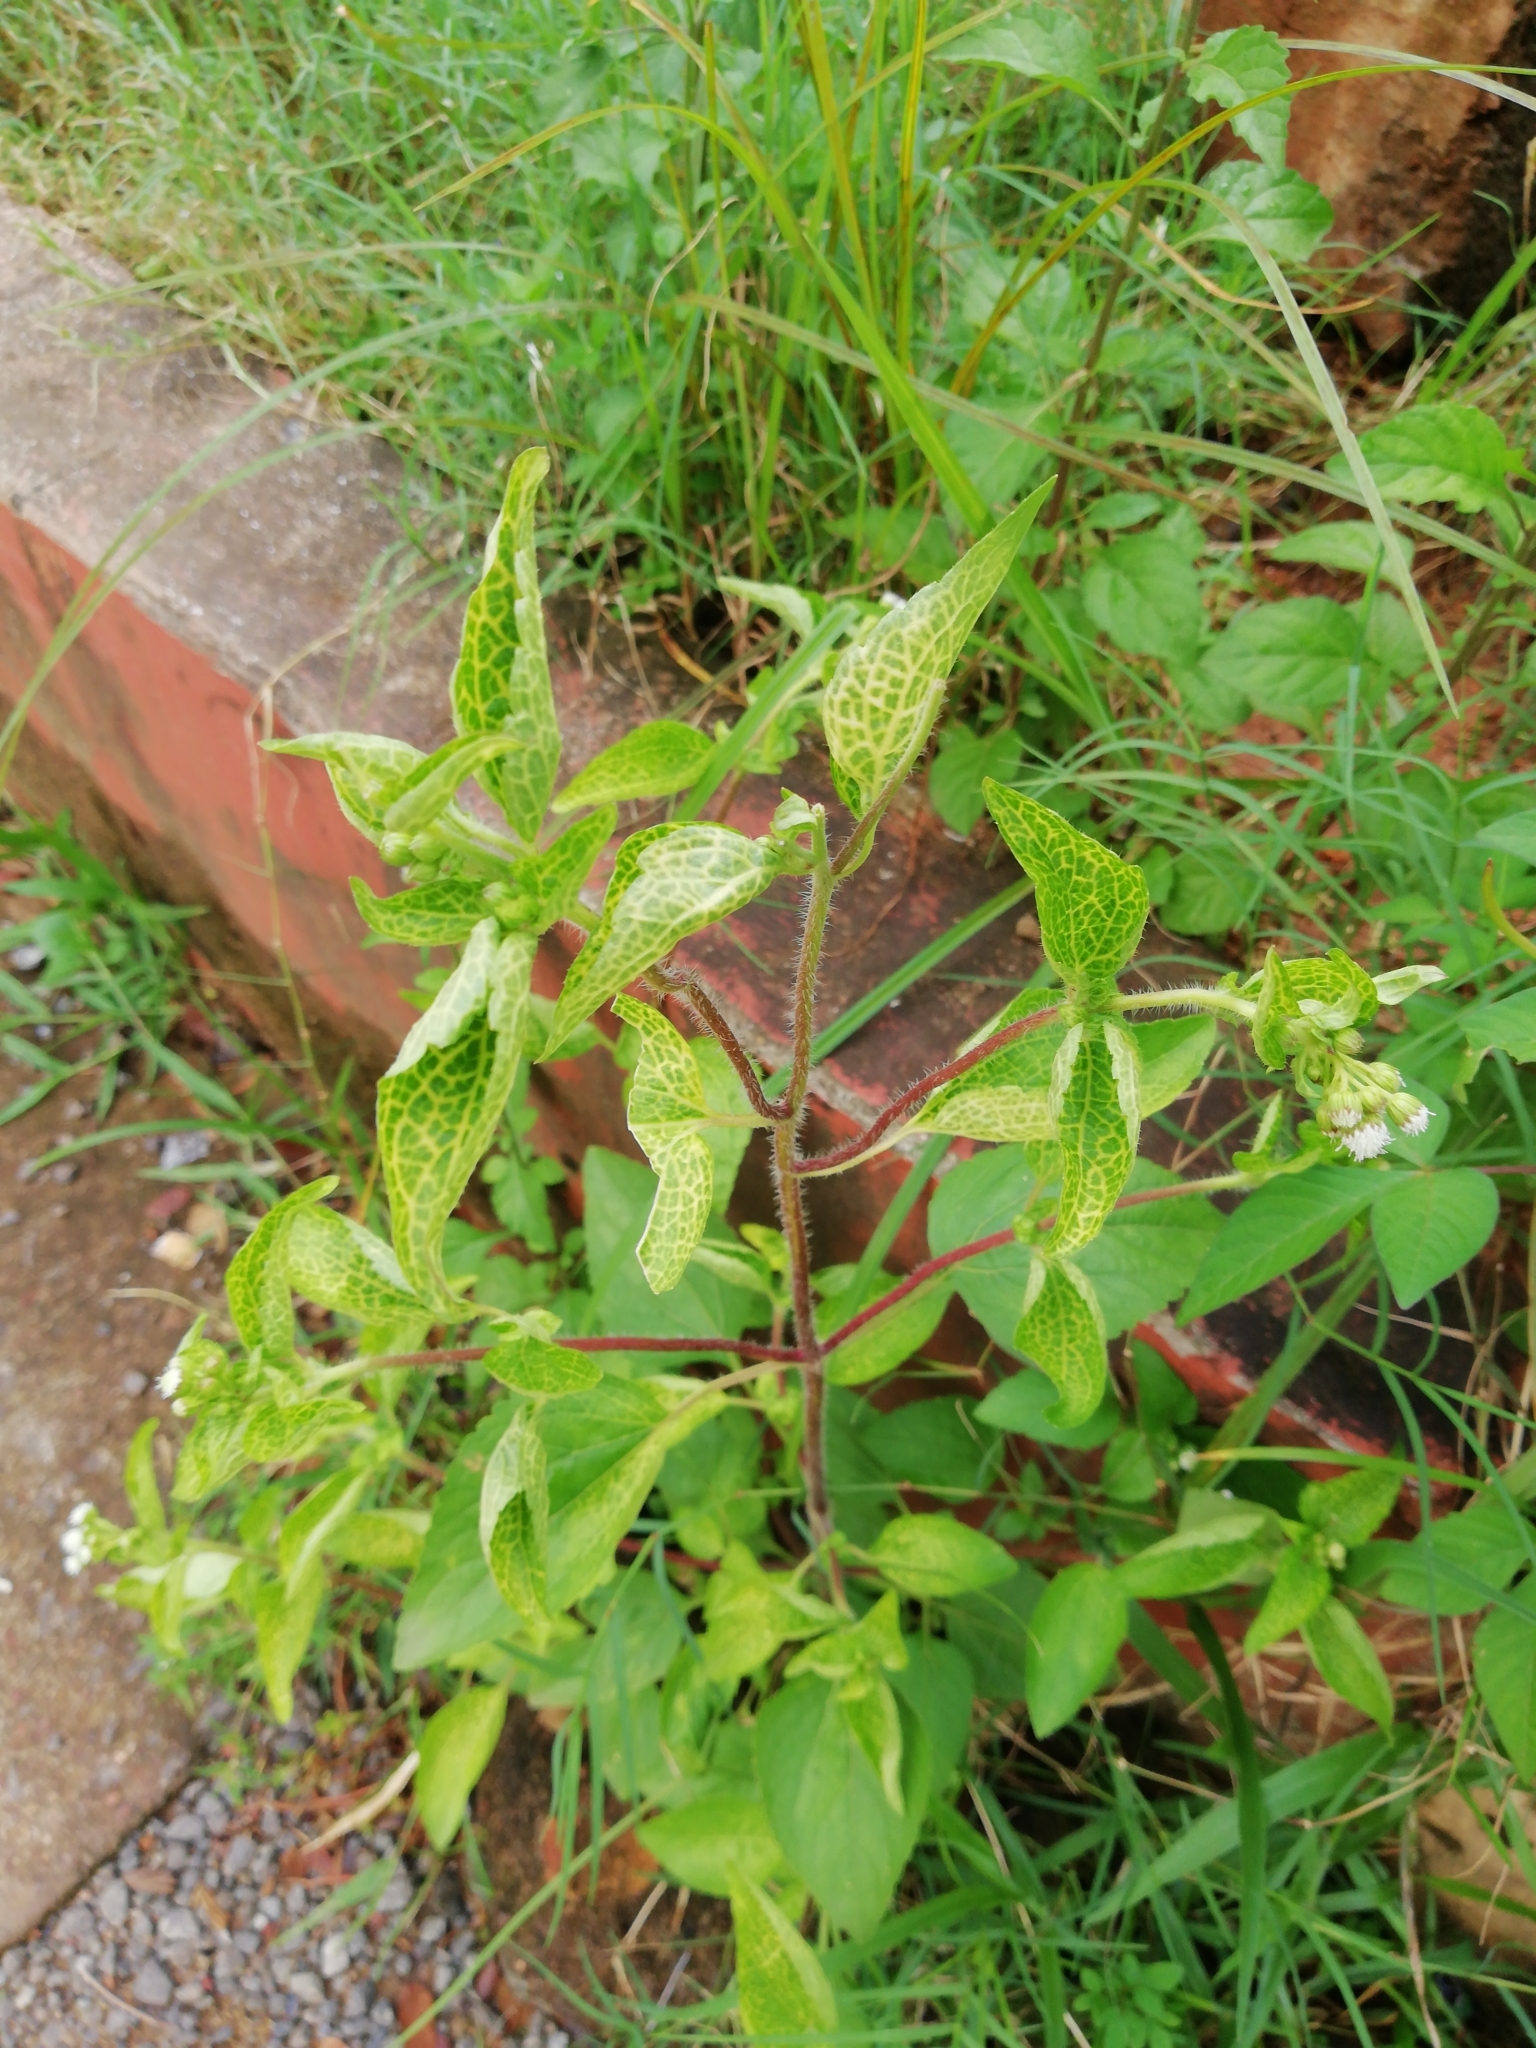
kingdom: Plantae
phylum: Tracheophyta
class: Magnoliopsida
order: Asterales
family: Asteraceae
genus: Ageratum
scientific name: Ageratum conyzoides
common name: Tropical whiteweed
